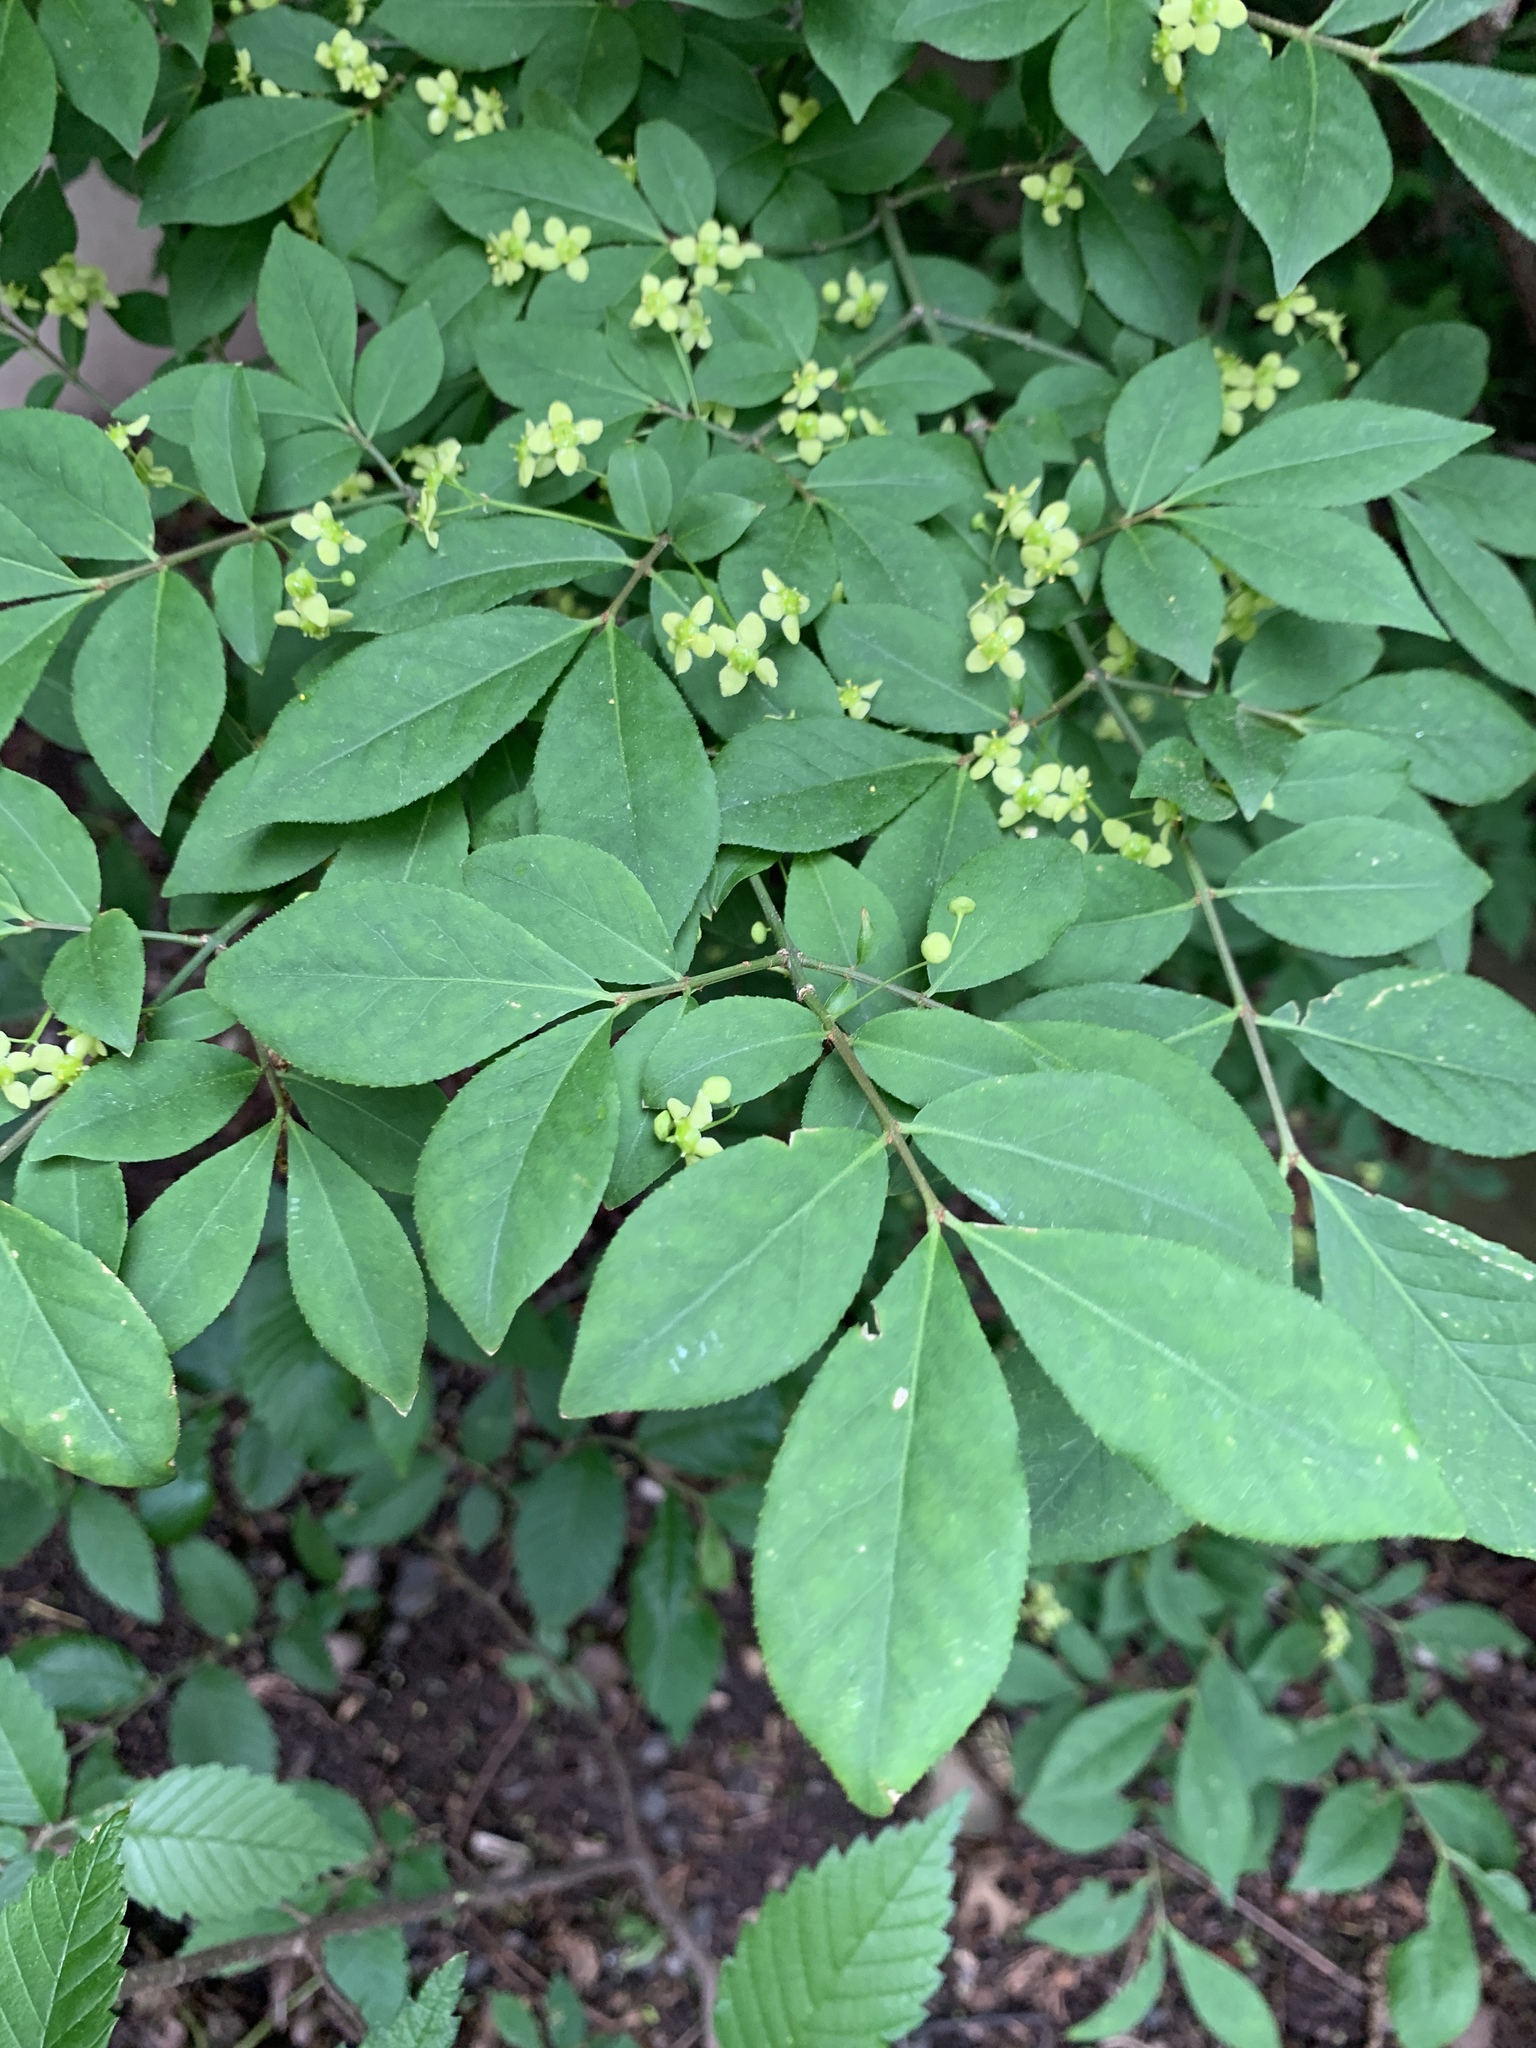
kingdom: Plantae
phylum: Tracheophyta
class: Magnoliopsida
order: Celastrales
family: Celastraceae
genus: Euonymus
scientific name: Euonymus alatus
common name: Winged euonymus
